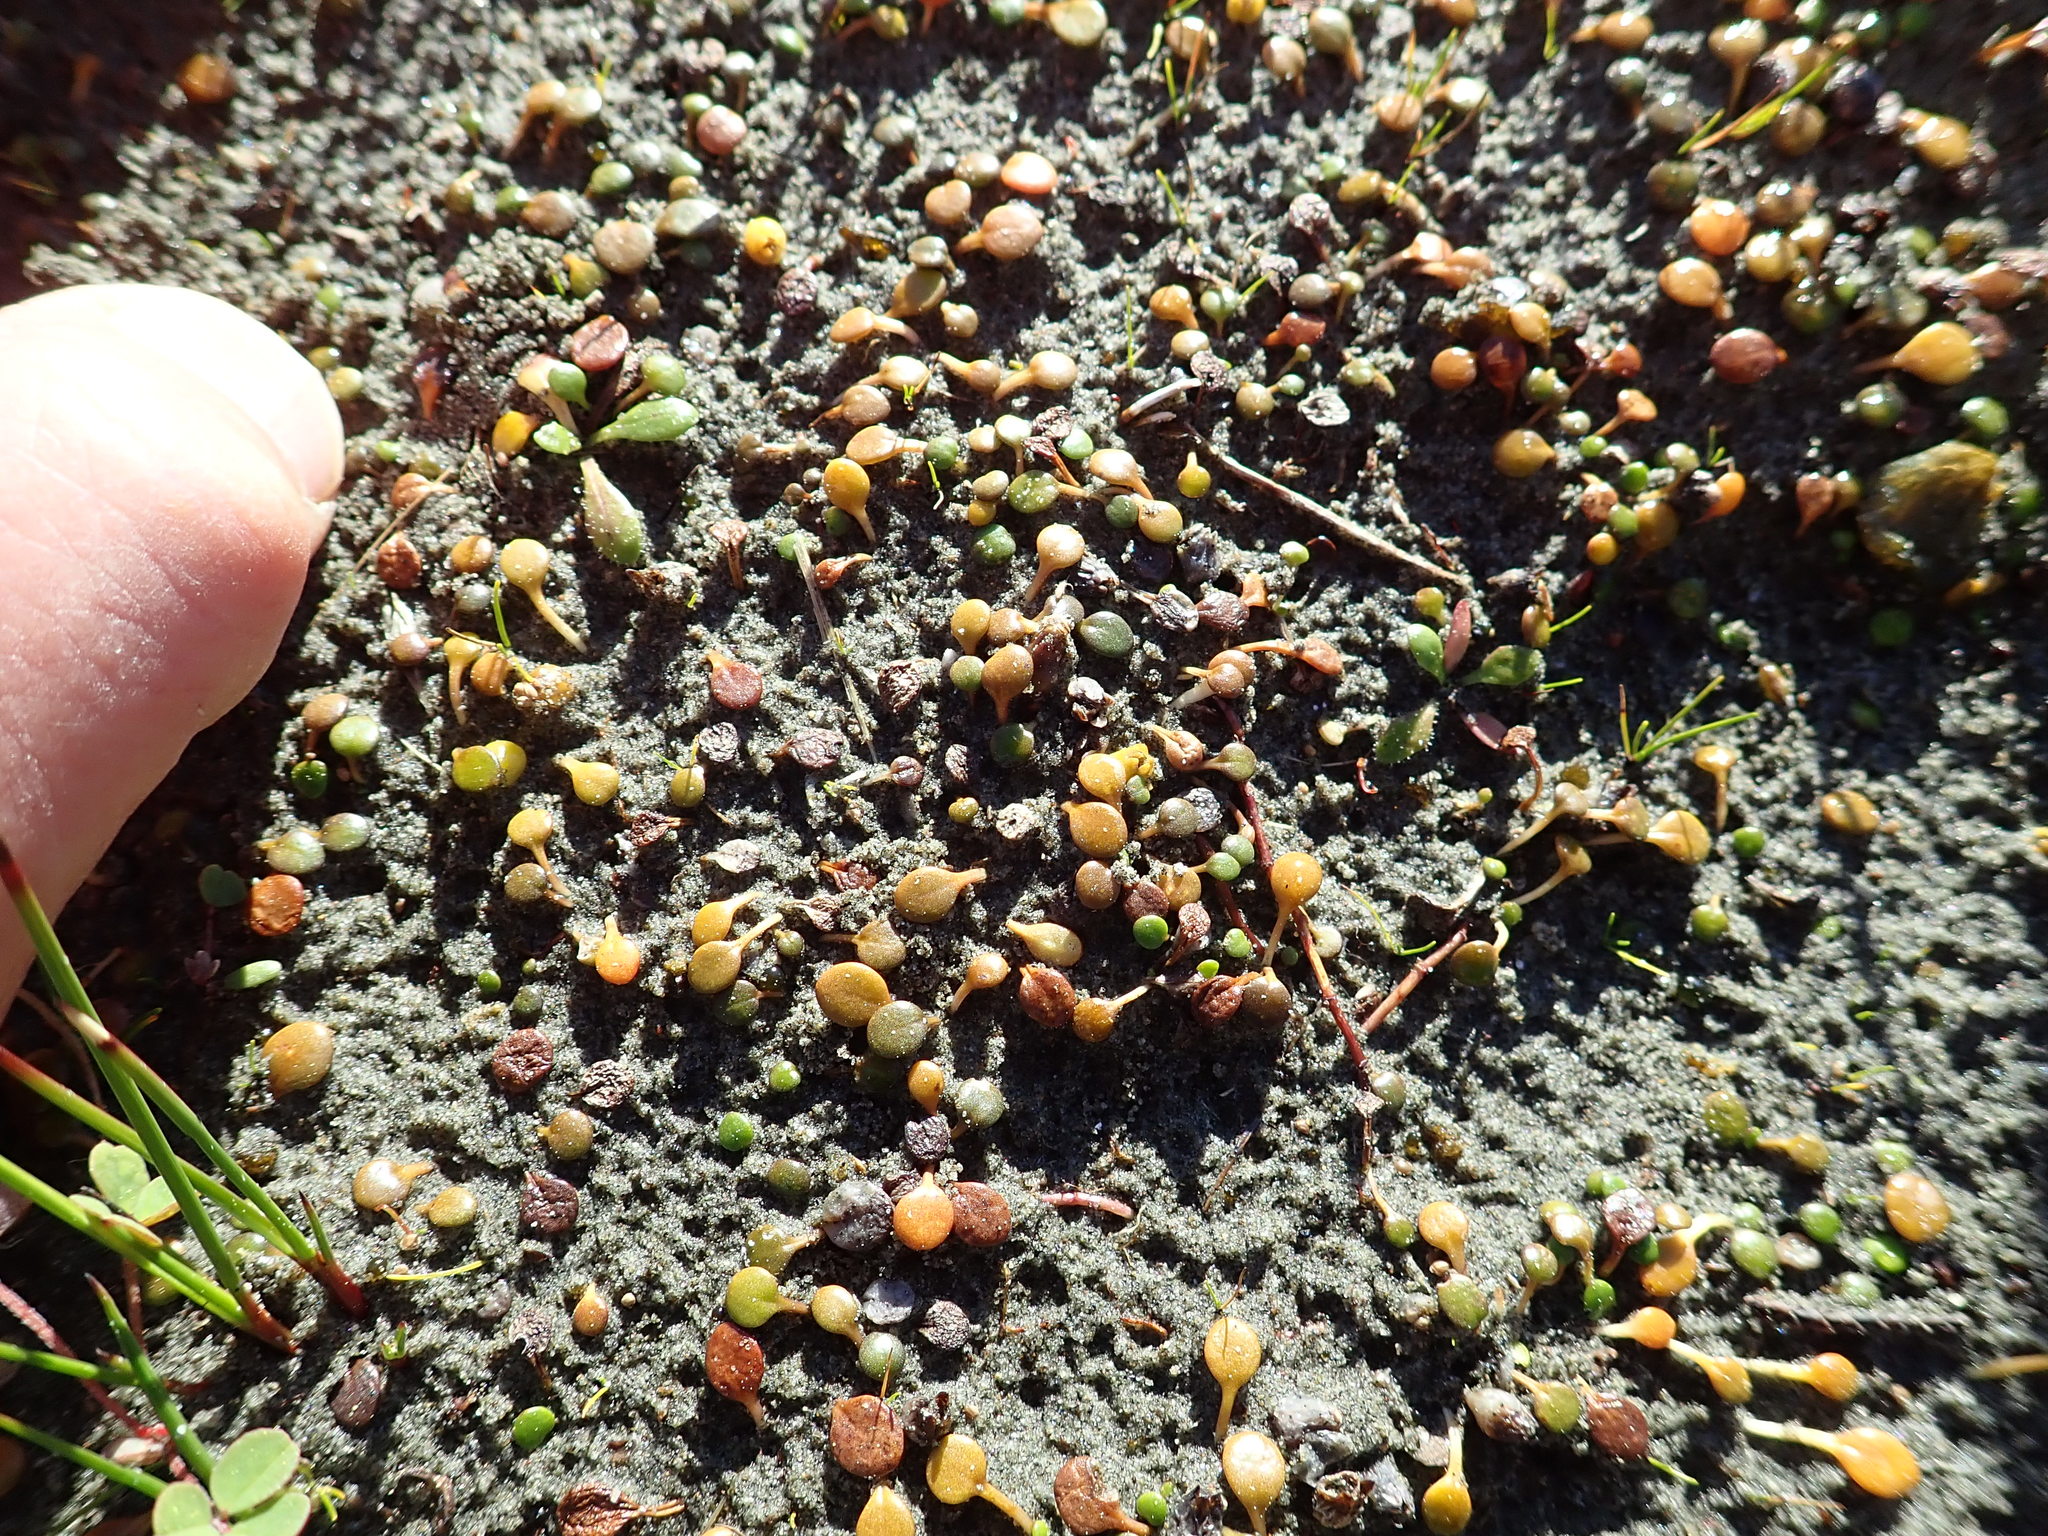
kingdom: Plantae
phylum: Tracheophyta
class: Magnoliopsida
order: Asterales
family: Goodeniaceae
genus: Goodenia
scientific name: Goodenia heenanii
